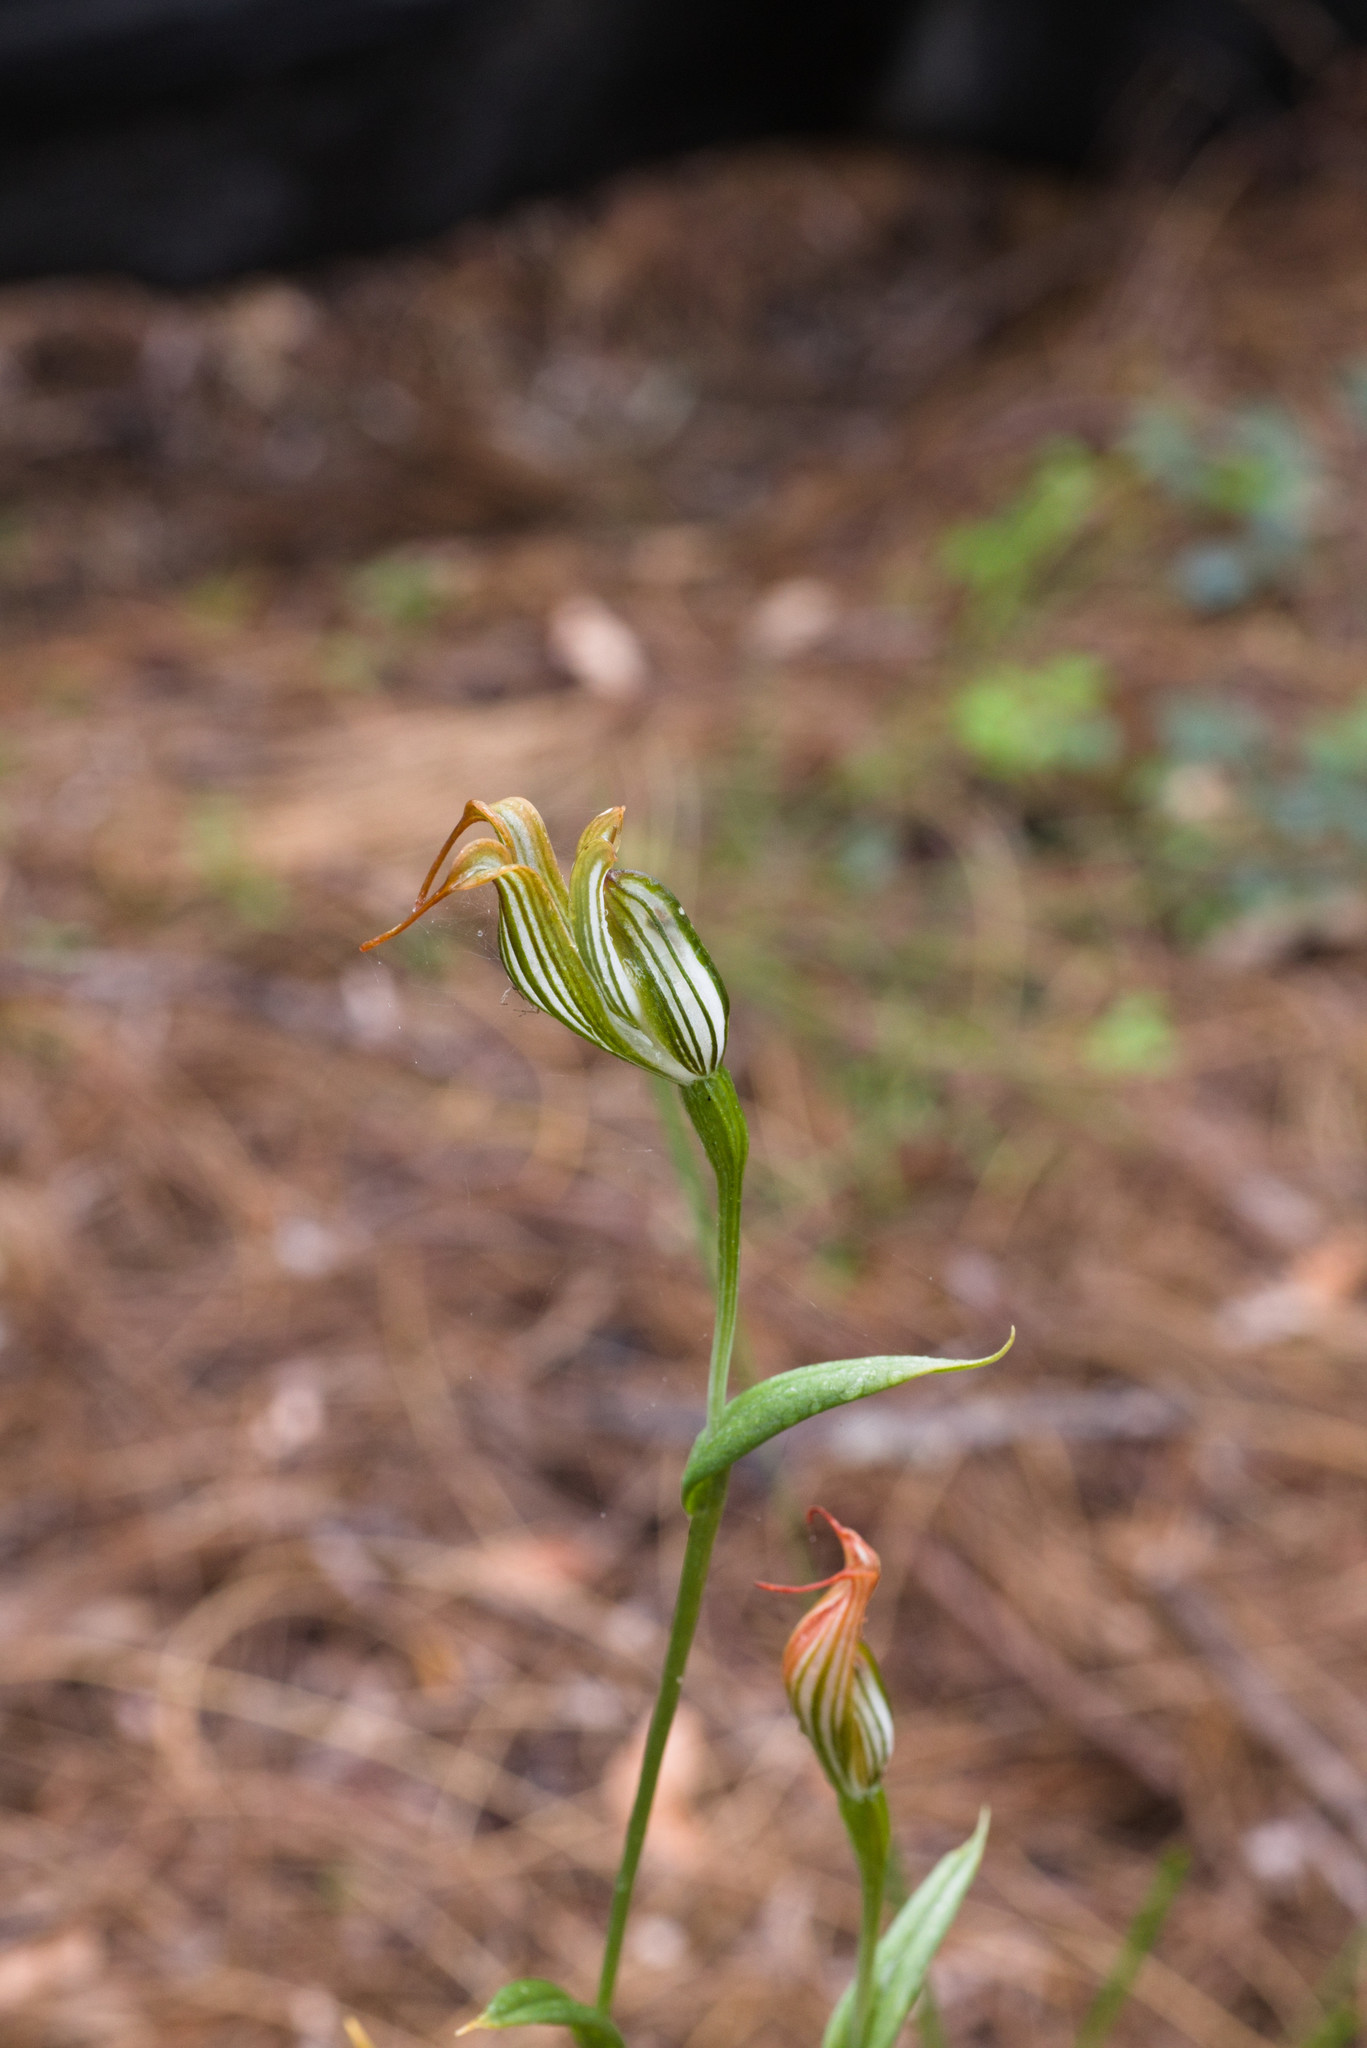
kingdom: Plantae
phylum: Tracheophyta
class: Liliopsida
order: Asparagales
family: Orchidaceae
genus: Pterostylis
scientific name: Pterostylis recurva
